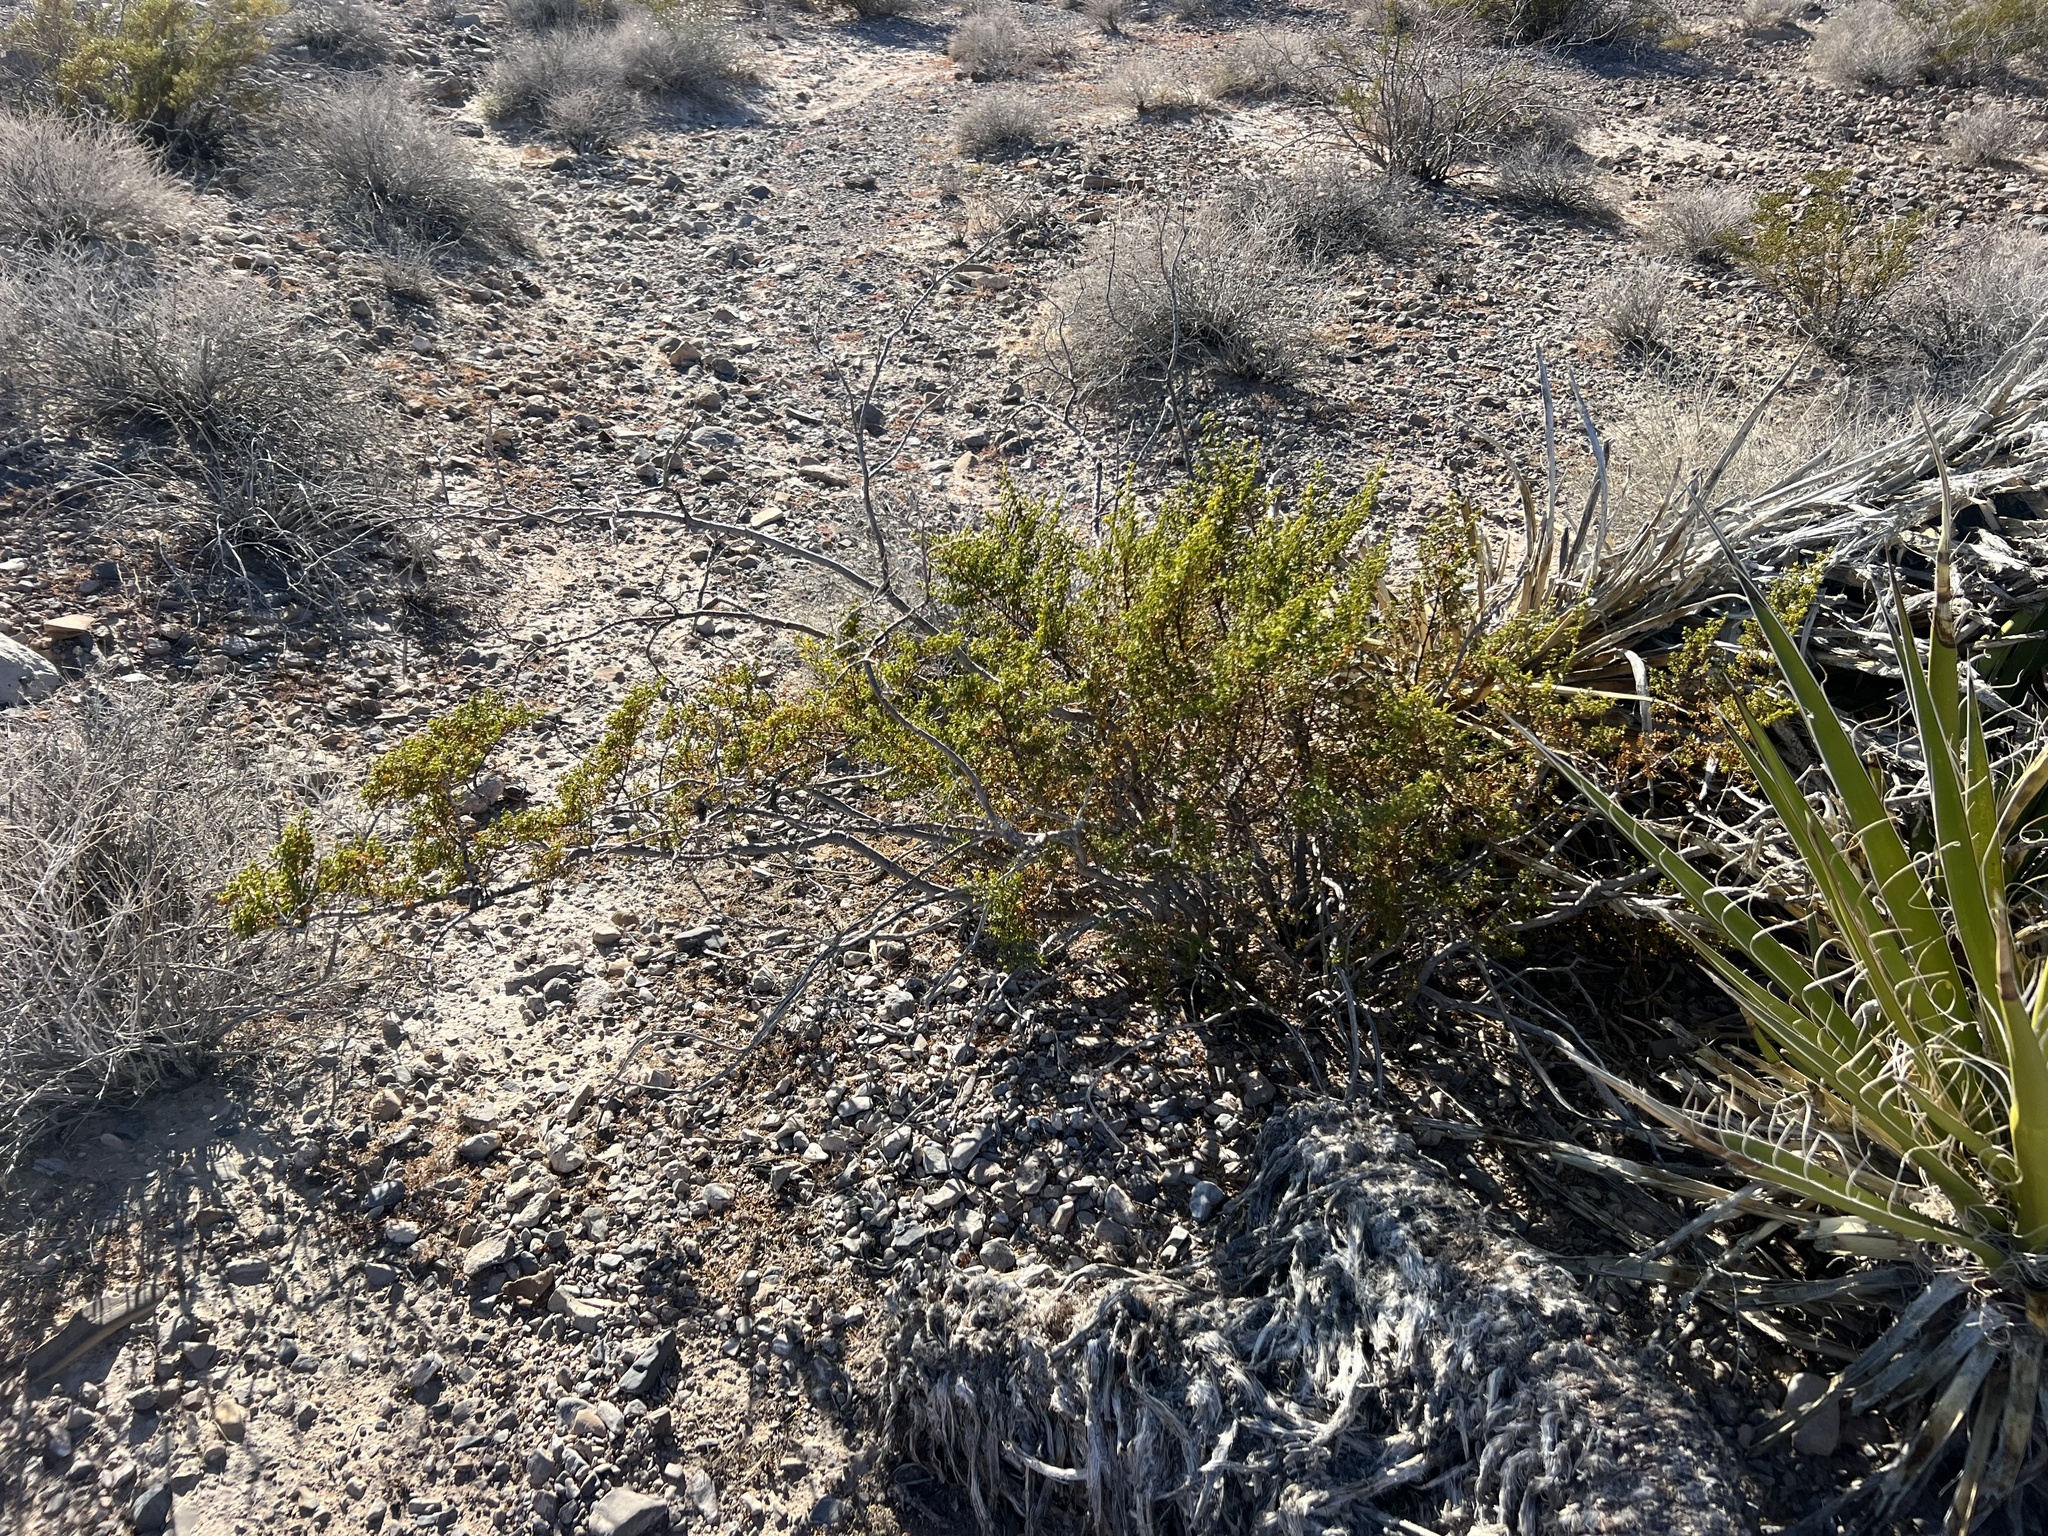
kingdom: Plantae
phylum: Tracheophyta
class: Magnoliopsida
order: Zygophyllales
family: Zygophyllaceae
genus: Larrea
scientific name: Larrea tridentata
